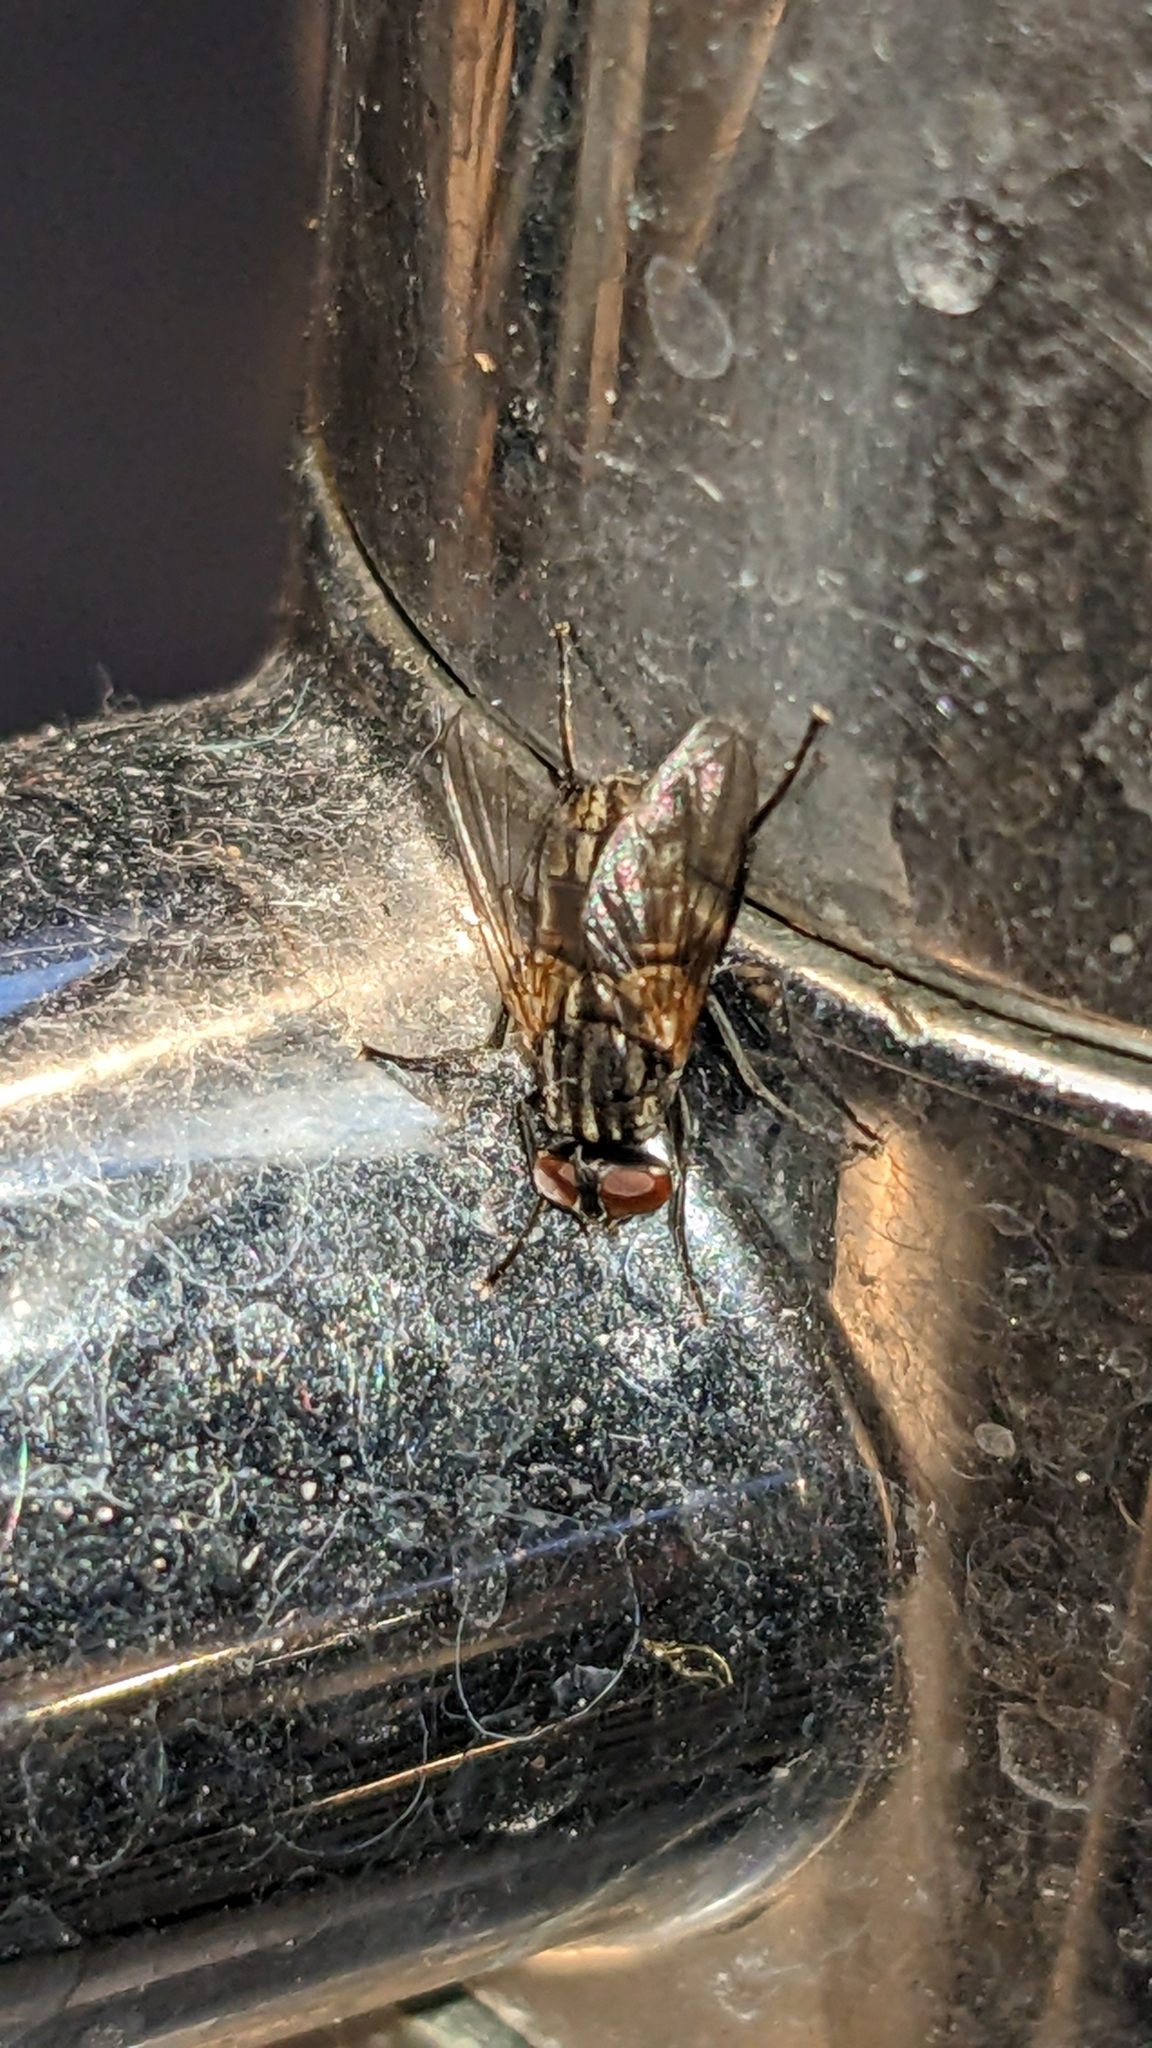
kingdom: Animalia
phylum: Arthropoda
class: Insecta
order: Diptera
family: Muscidae
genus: Musca
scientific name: Musca domestica
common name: House fly
